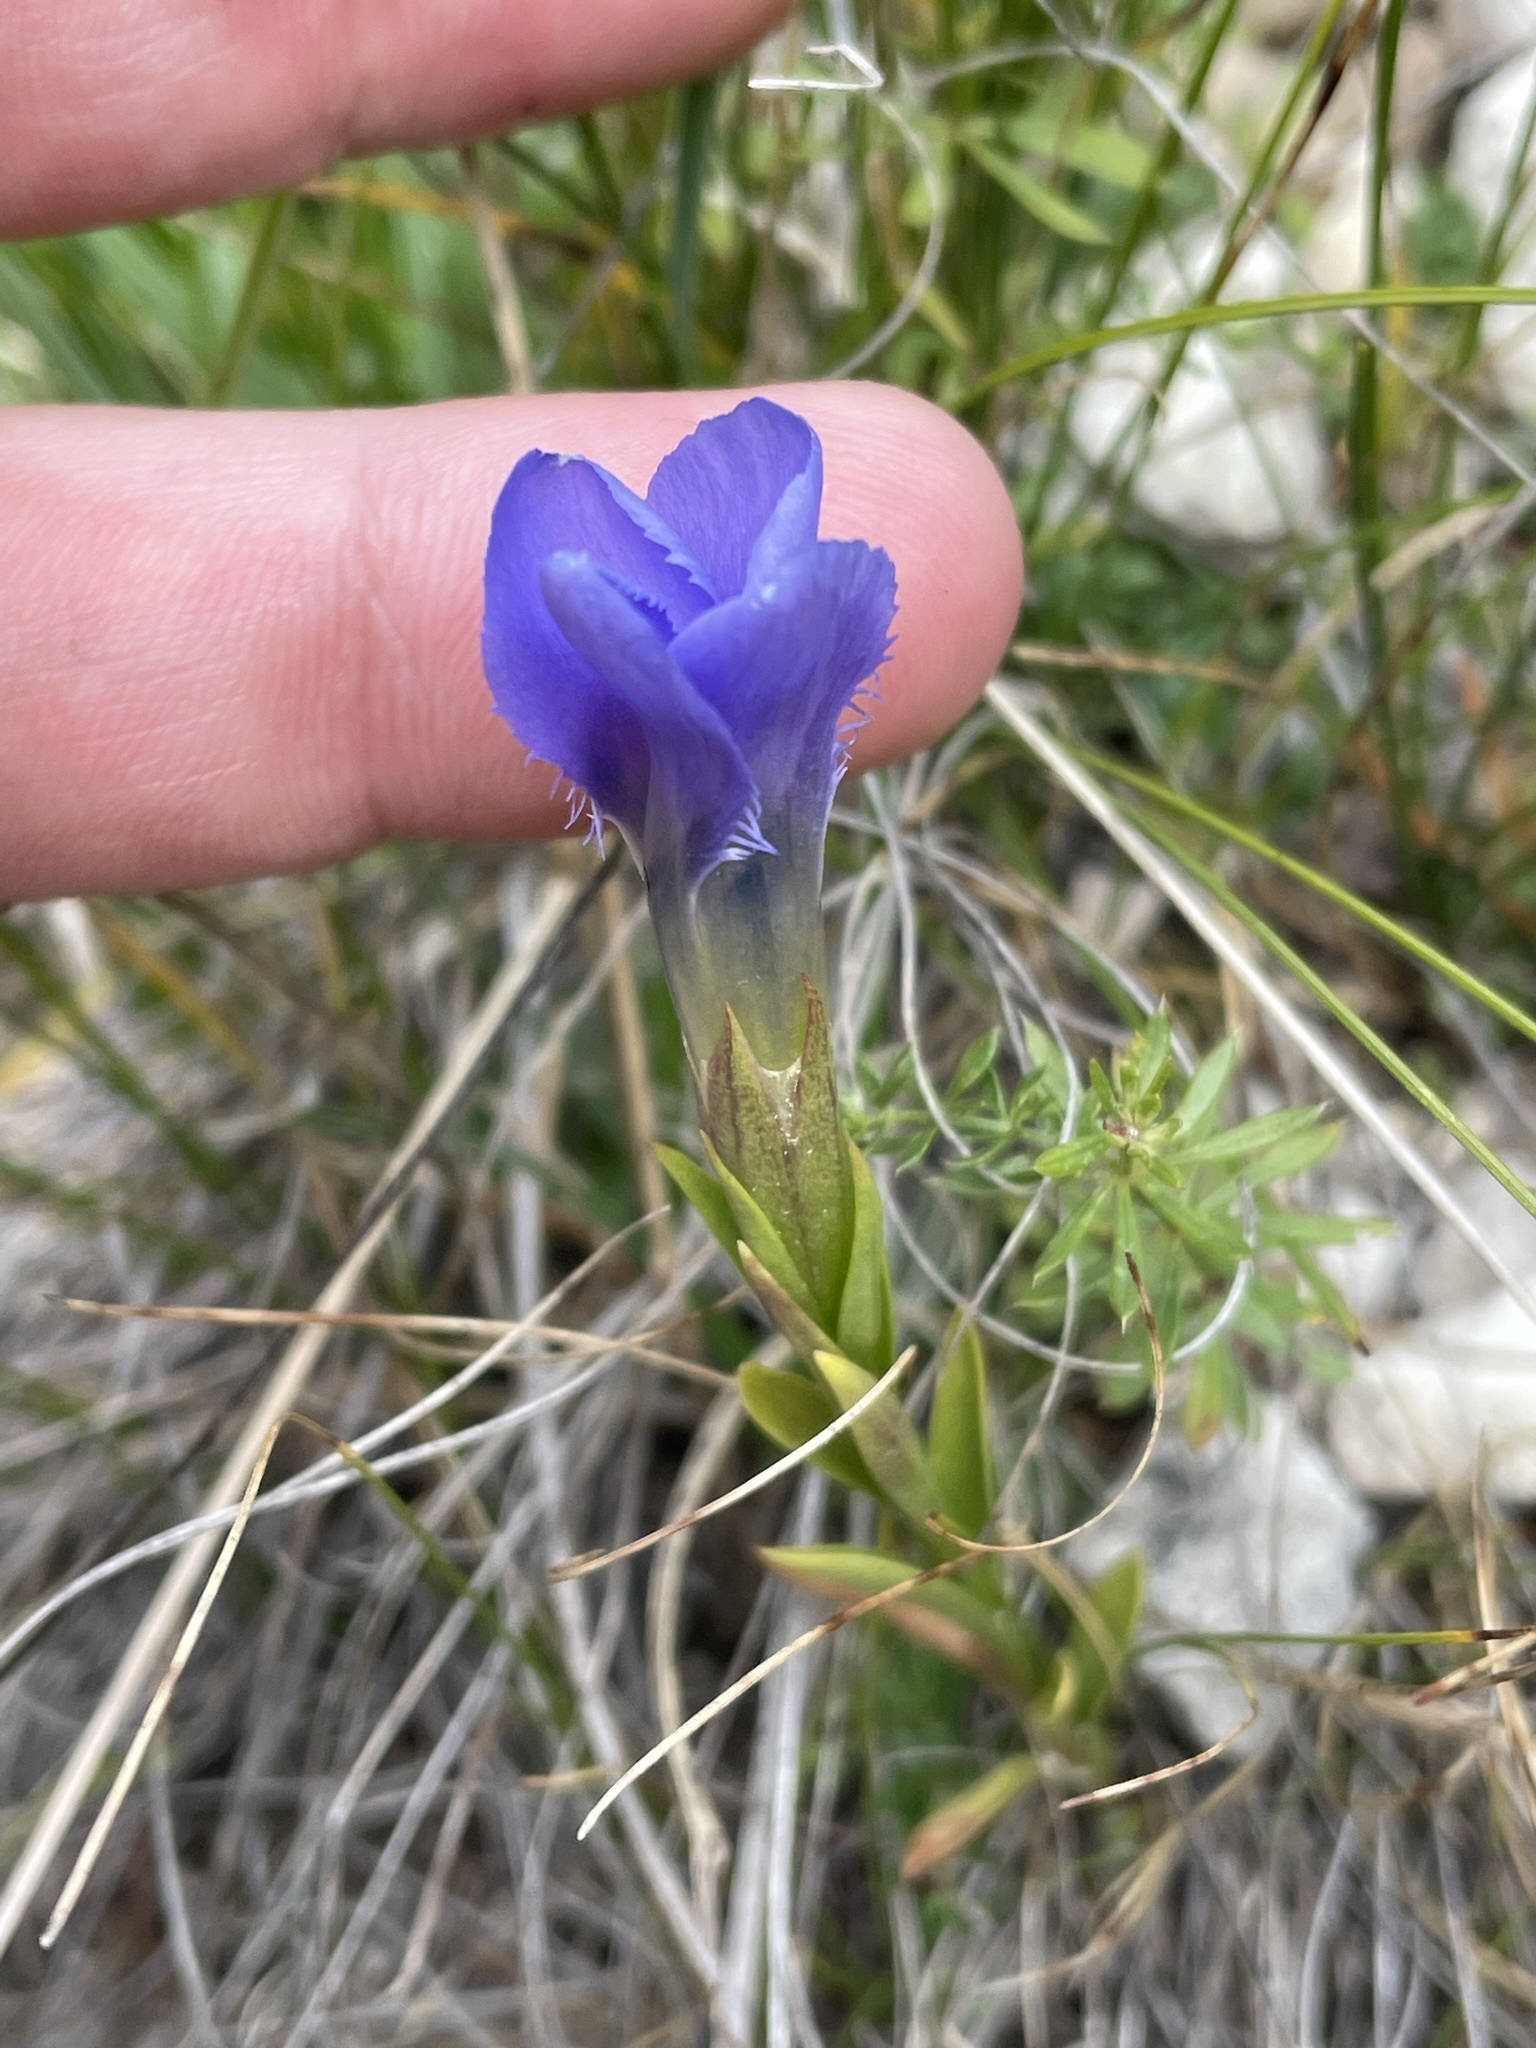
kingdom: Plantae
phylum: Tracheophyta
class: Magnoliopsida
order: Gentianales
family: Gentianaceae
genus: Gentianopsis
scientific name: Gentianopsis ciliata
